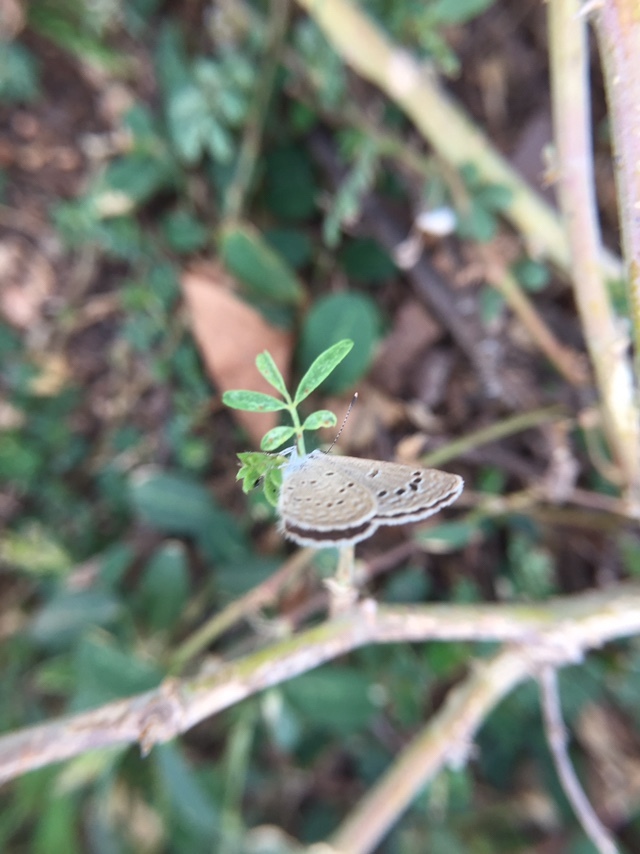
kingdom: Animalia
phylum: Arthropoda
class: Insecta
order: Lepidoptera
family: Lycaenidae
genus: Zizina
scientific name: Zizina otis
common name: Lesser grass blue
